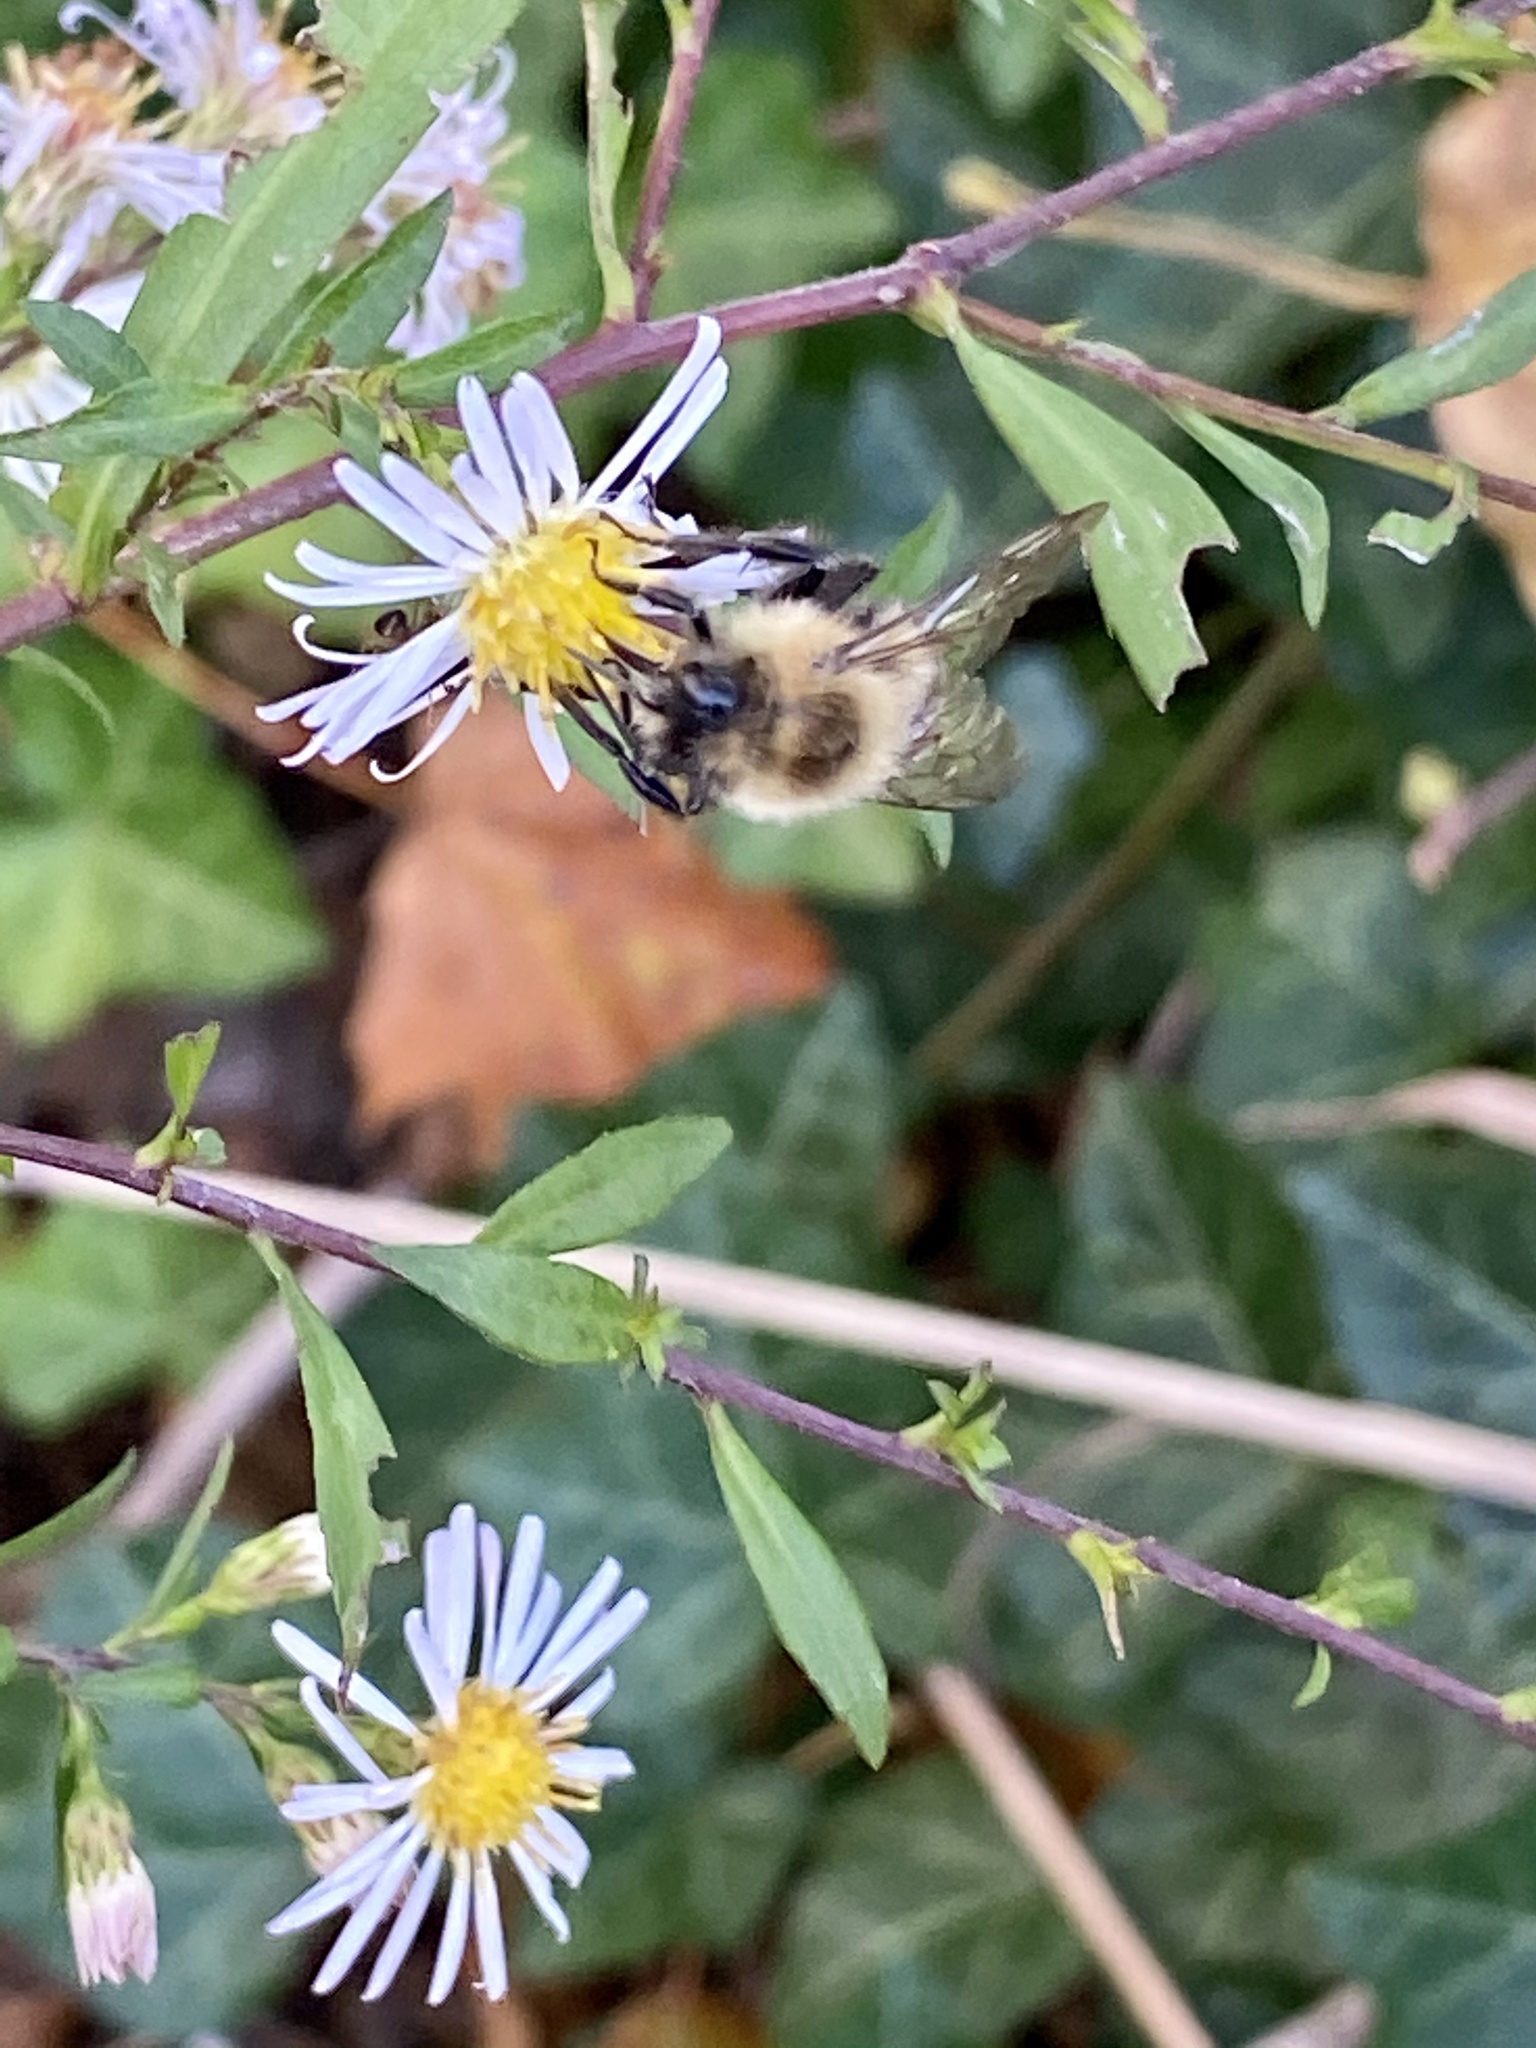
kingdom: Animalia
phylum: Arthropoda
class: Insecta
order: Hymenoptera
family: Apidae
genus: Bombus
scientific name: Bombus impatiens
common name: Common eastern bumble bee
